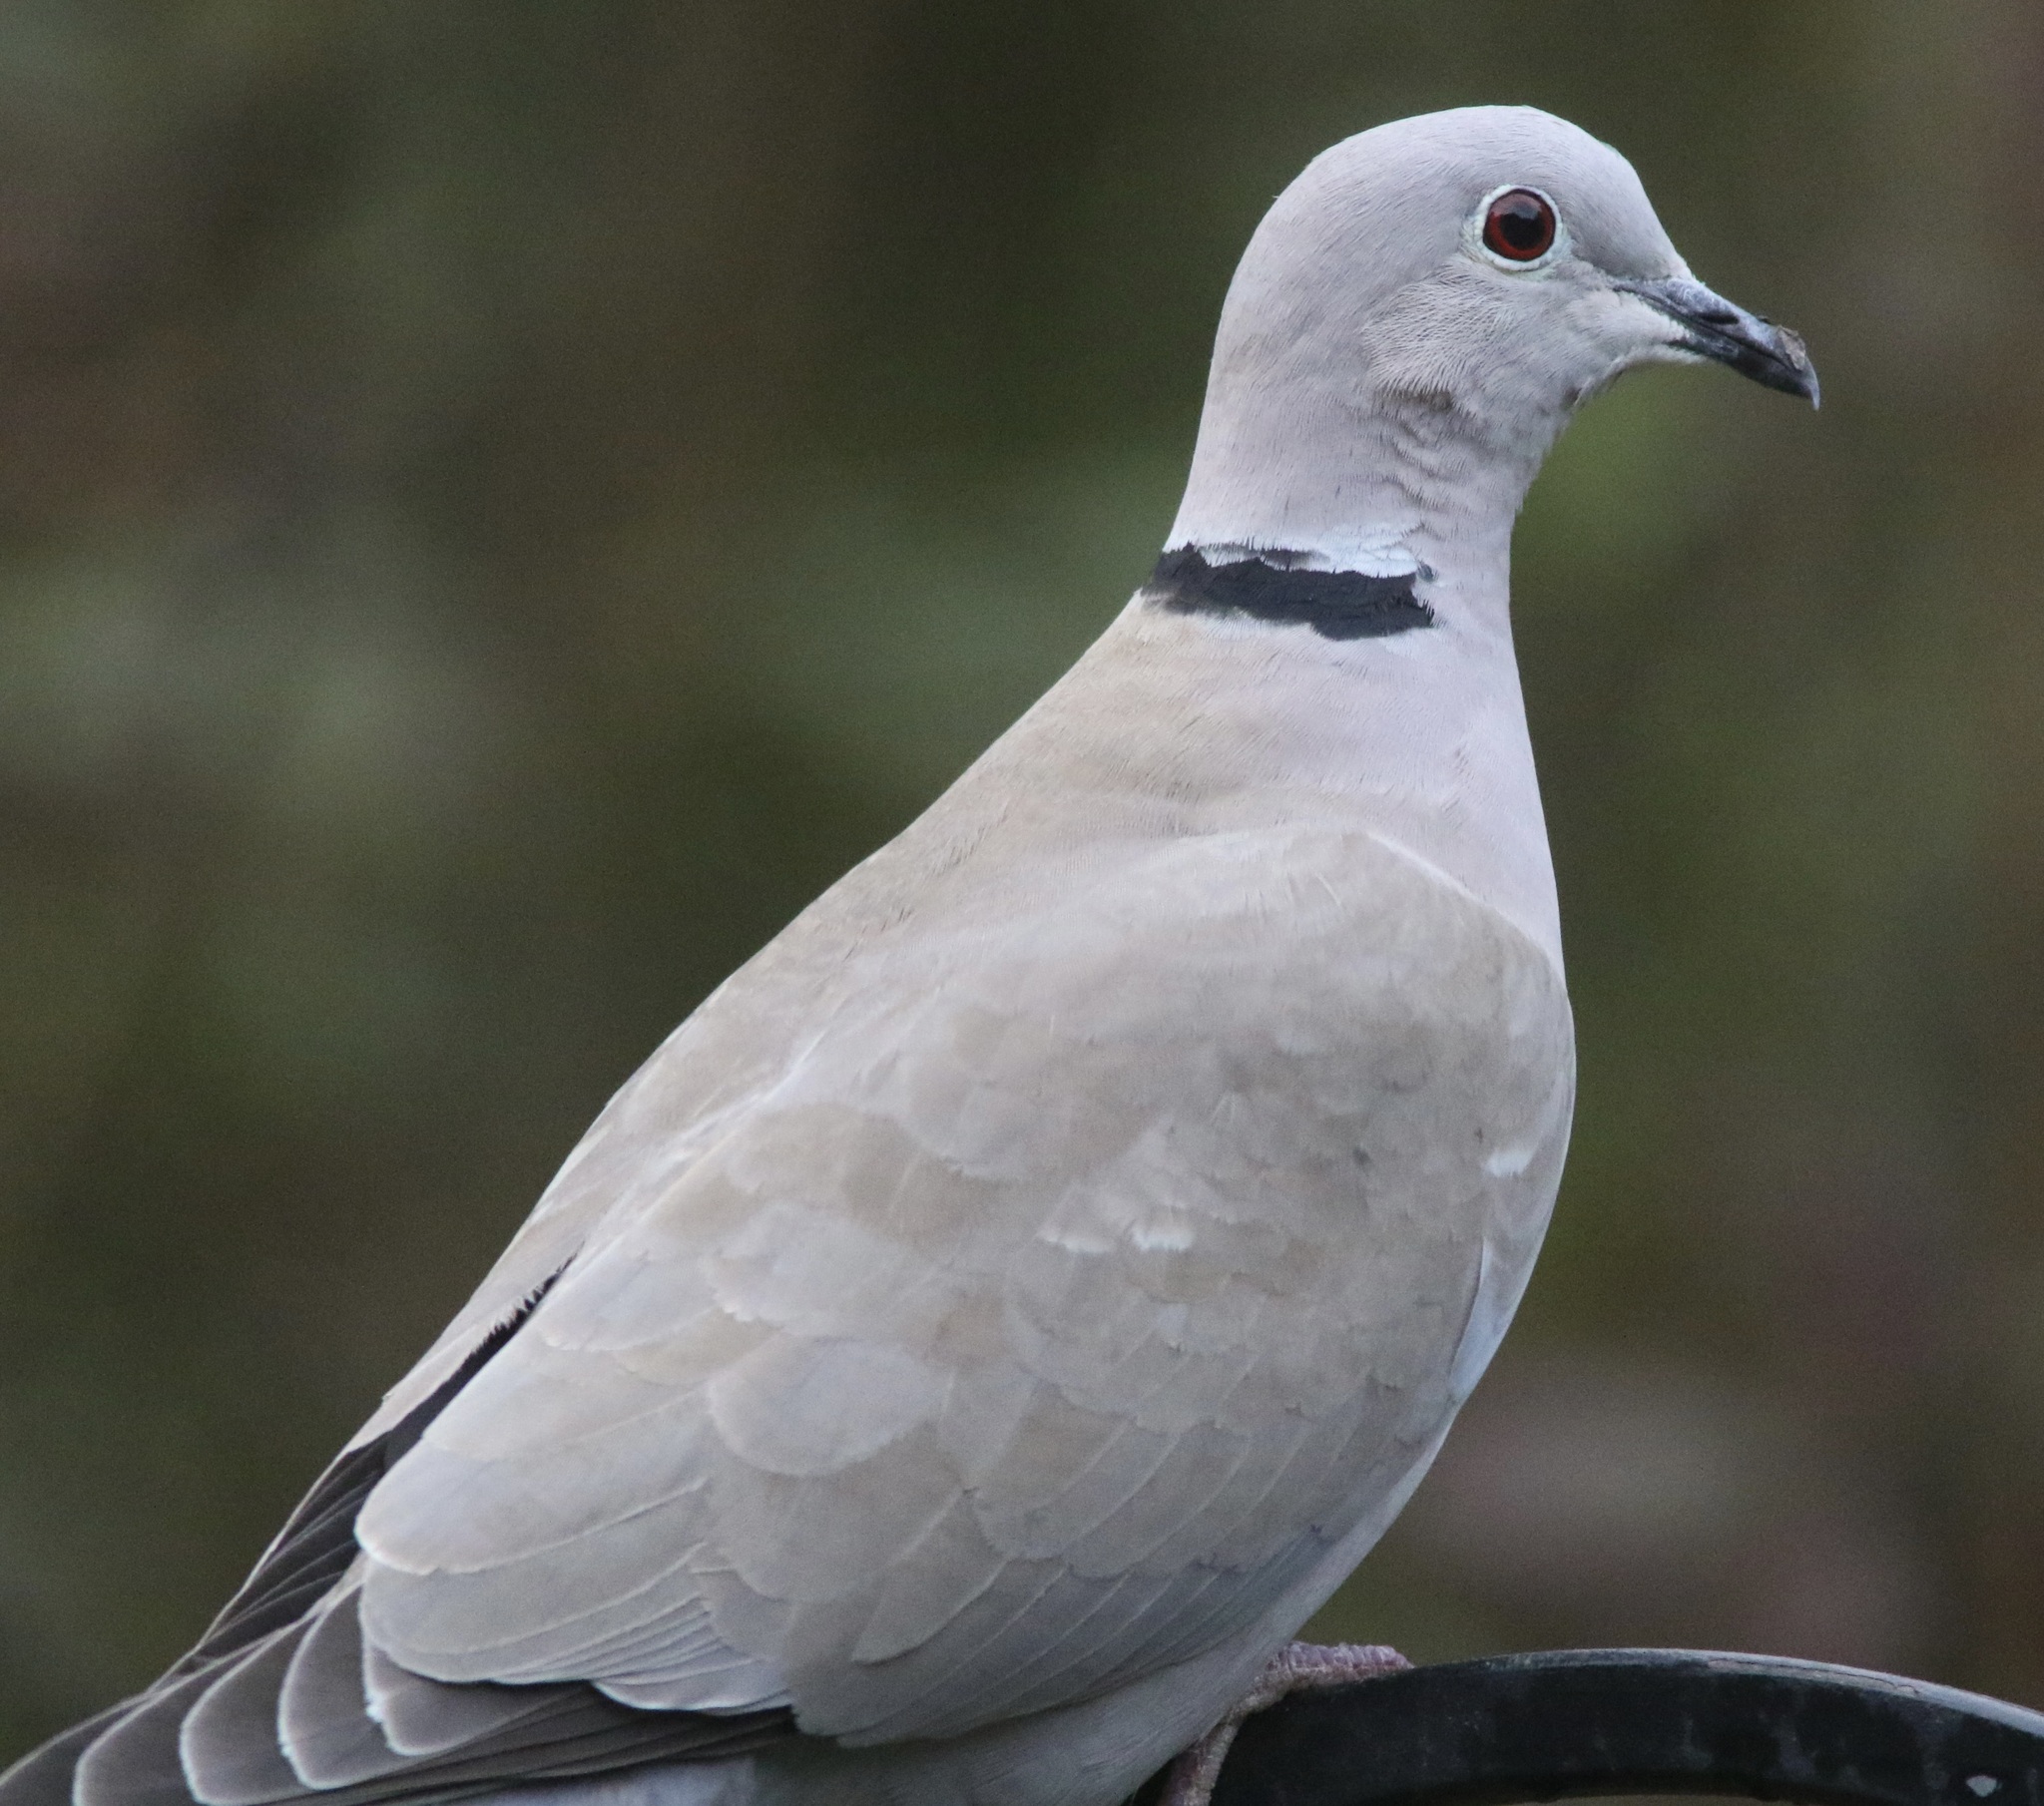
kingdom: Animalia
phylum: Chordata
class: Aves
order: Columbiformes
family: Columbidae
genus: Streptopelia
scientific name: Streptopelia decaocto
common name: Eurasian collared dove
